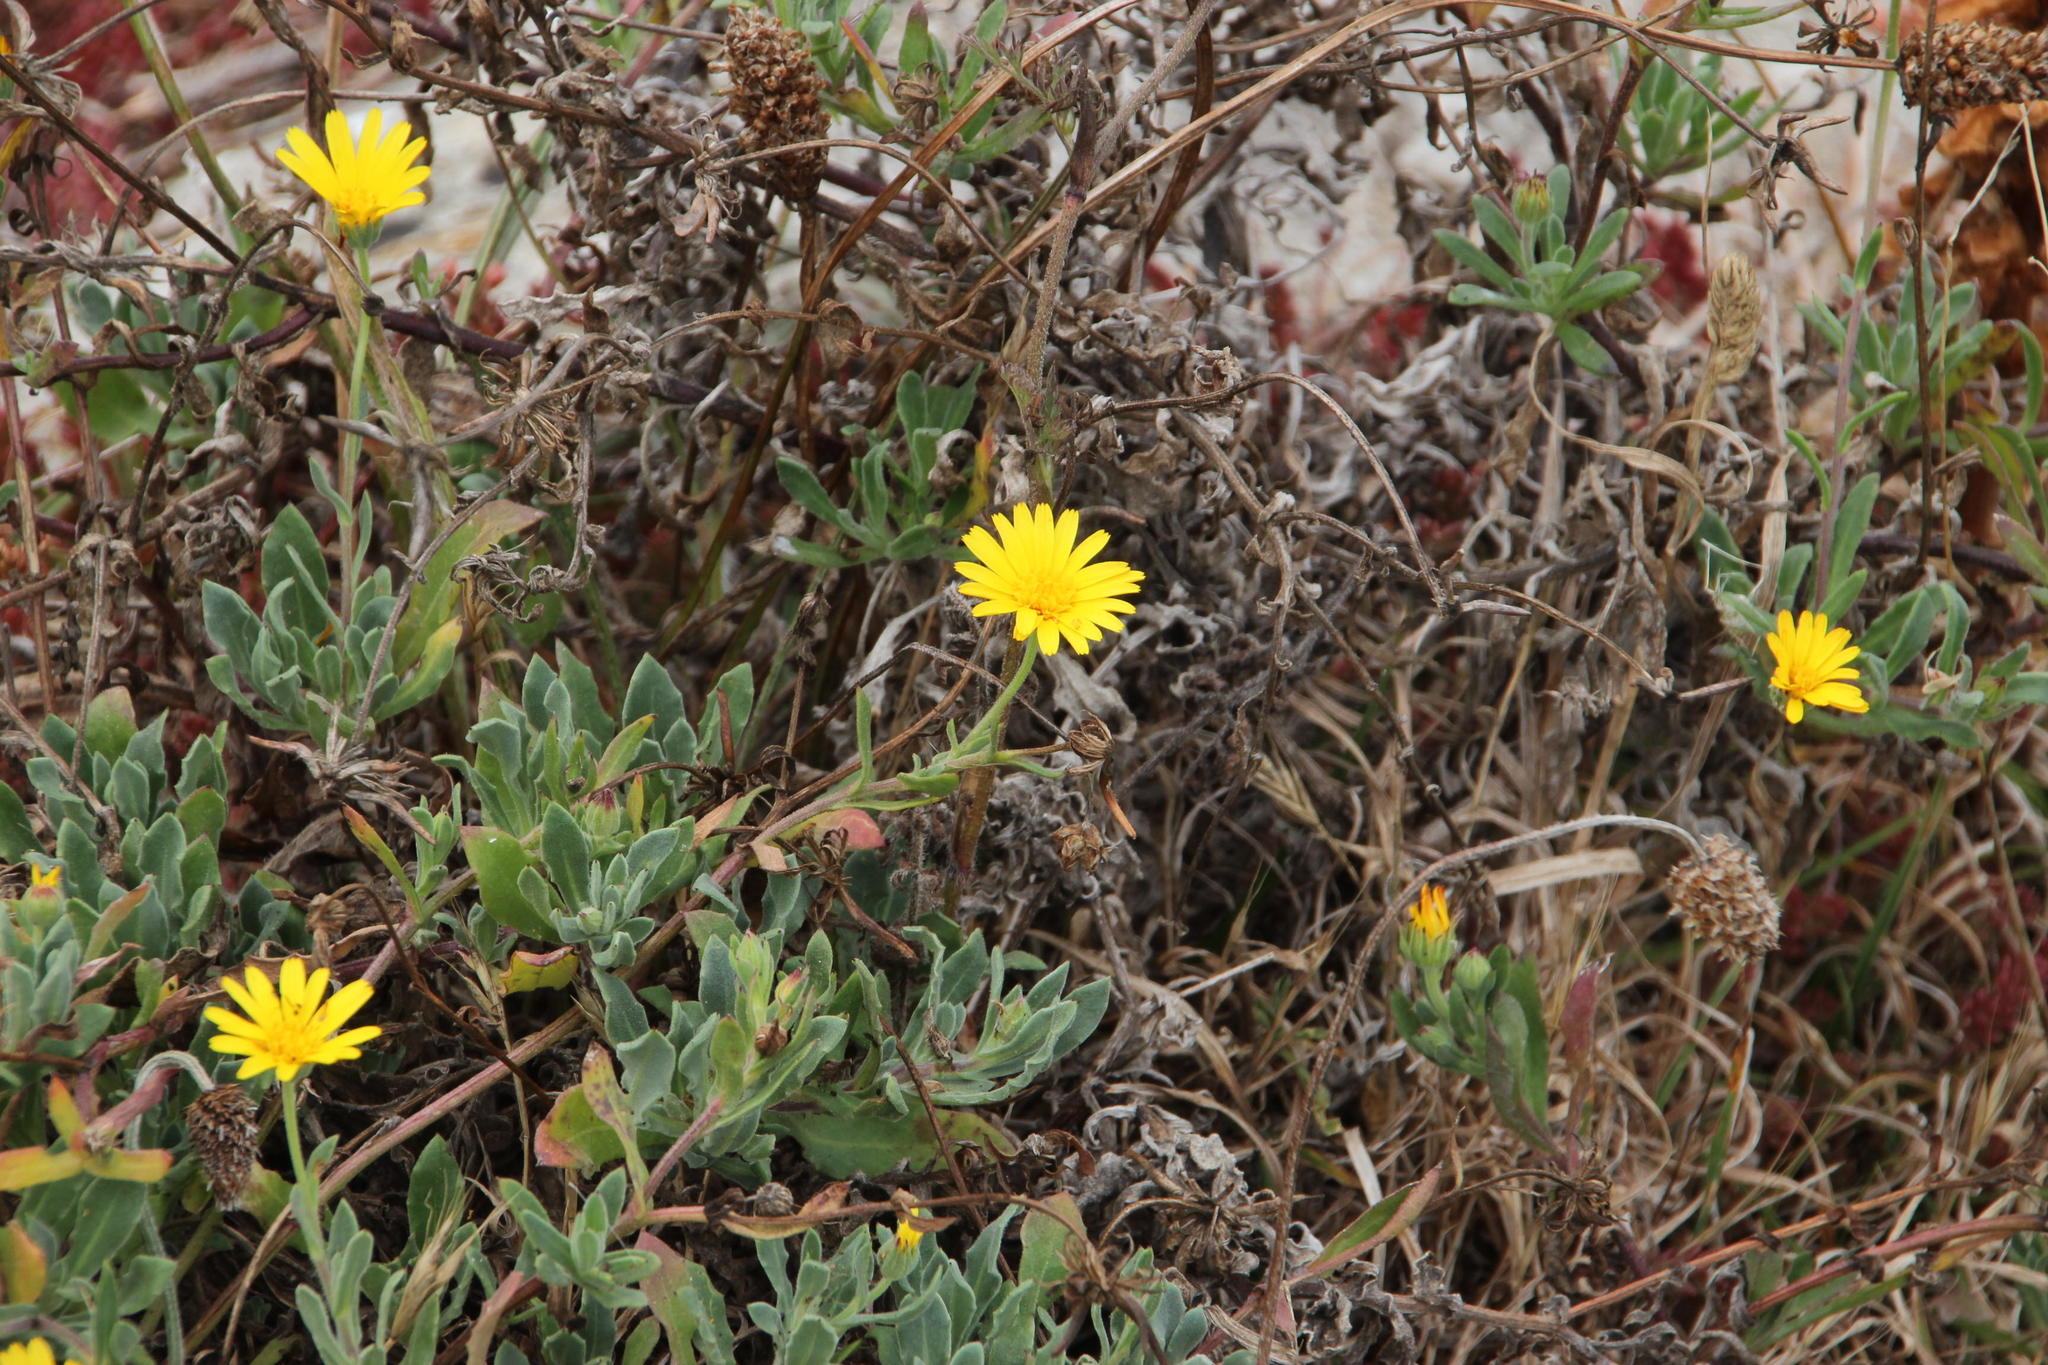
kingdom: Plantae
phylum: Tracheophyta
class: Magnoliopsida
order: Asterales
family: Asteraceae
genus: Calendula
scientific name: Calendula suffruticosa
